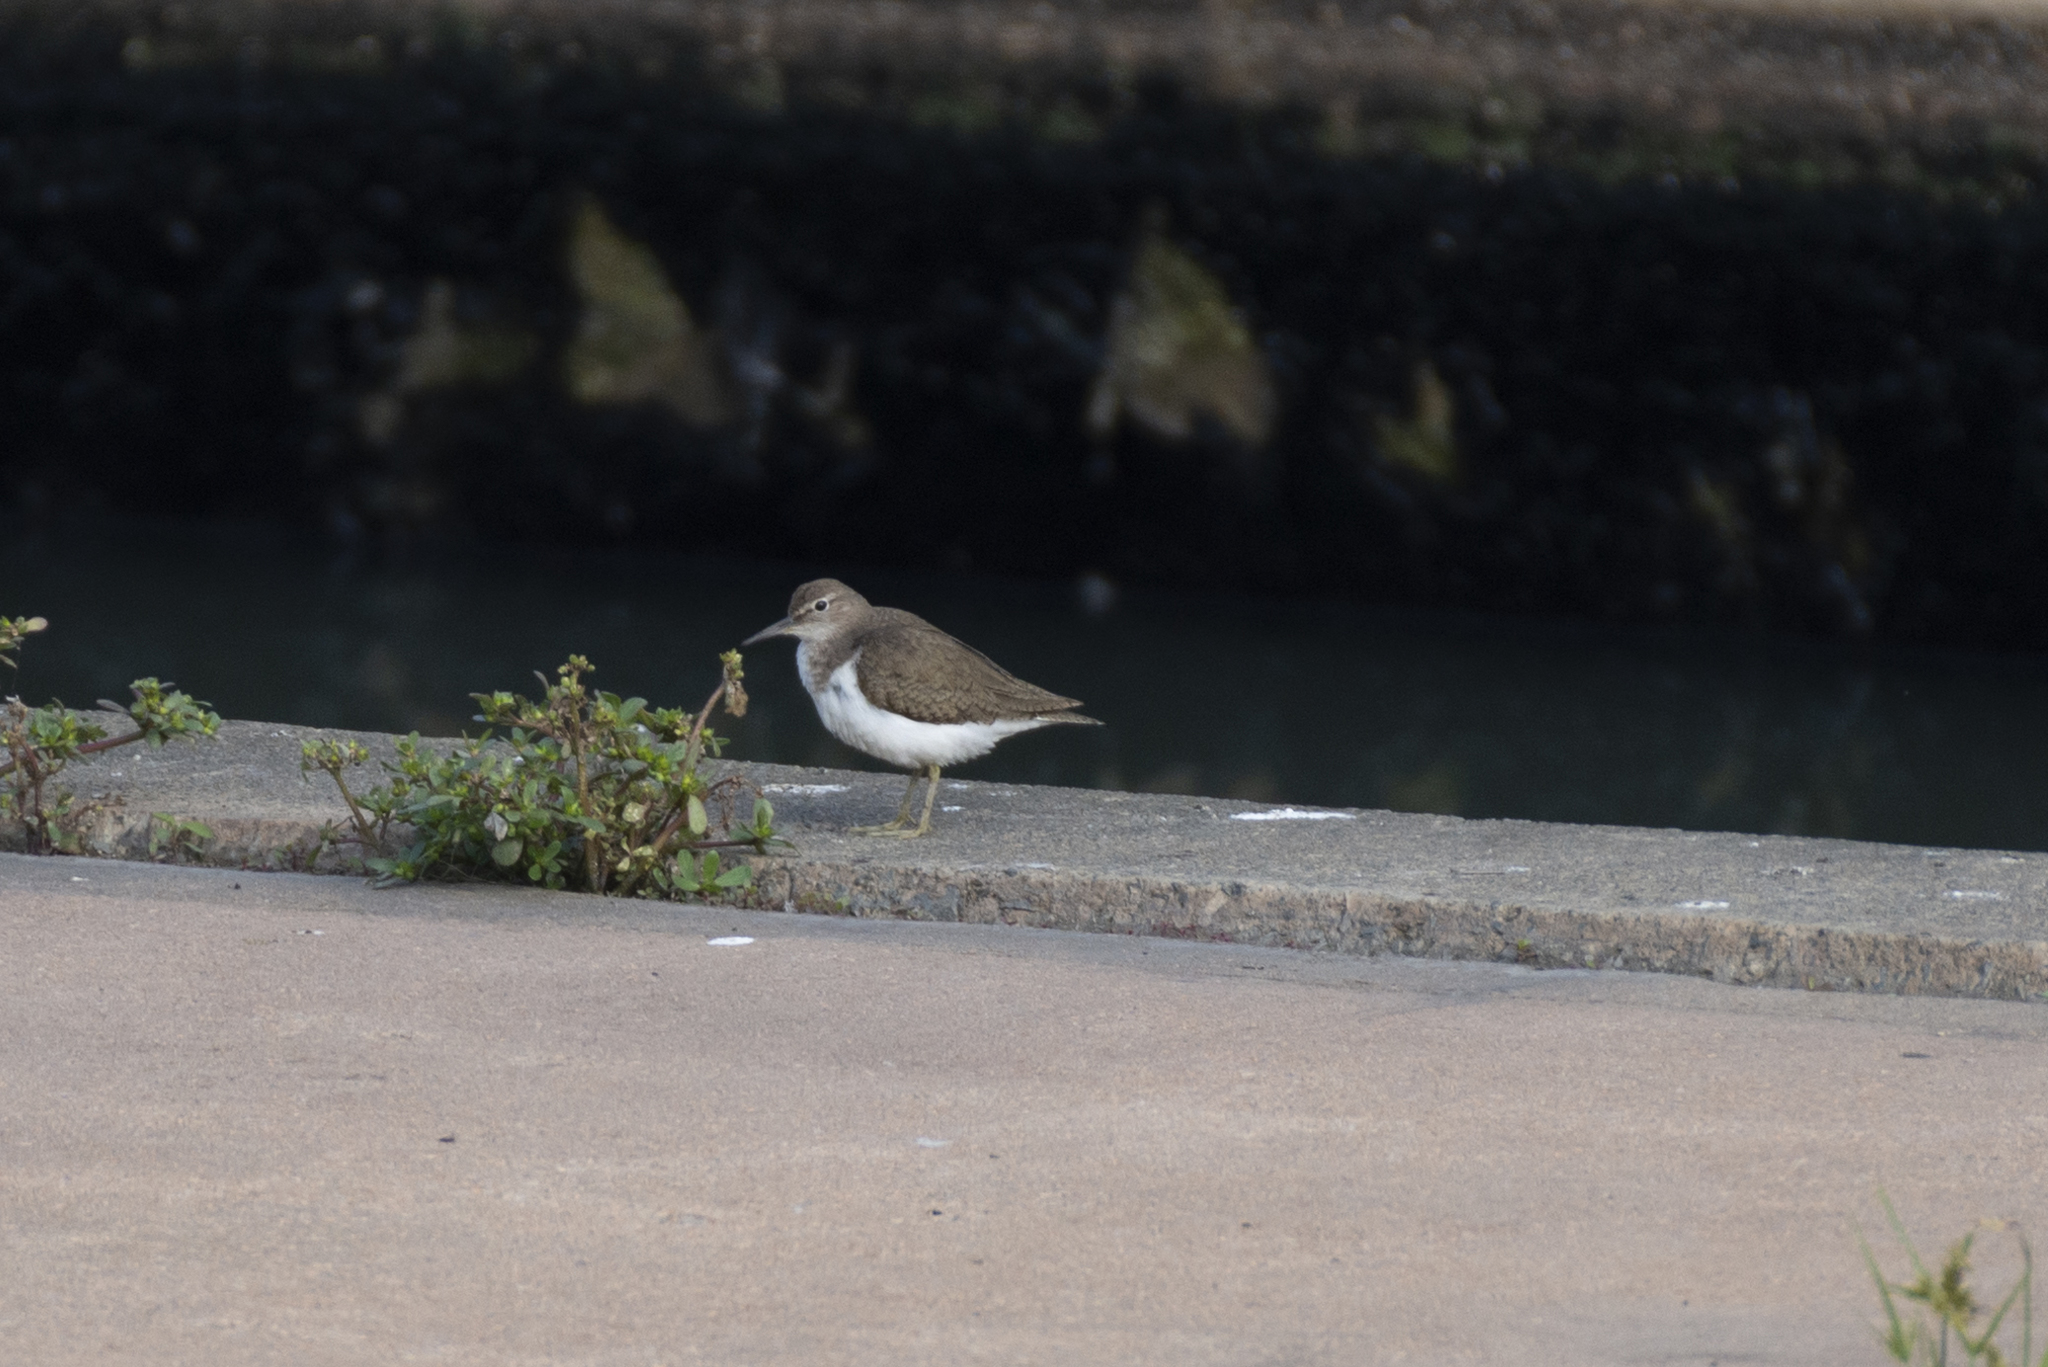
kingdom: Animalia
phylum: Chordata
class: Aves
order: Charadriiformes
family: Scolopacidae
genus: Actitis
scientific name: Actitis hypoleucos
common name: Common sandpiper
